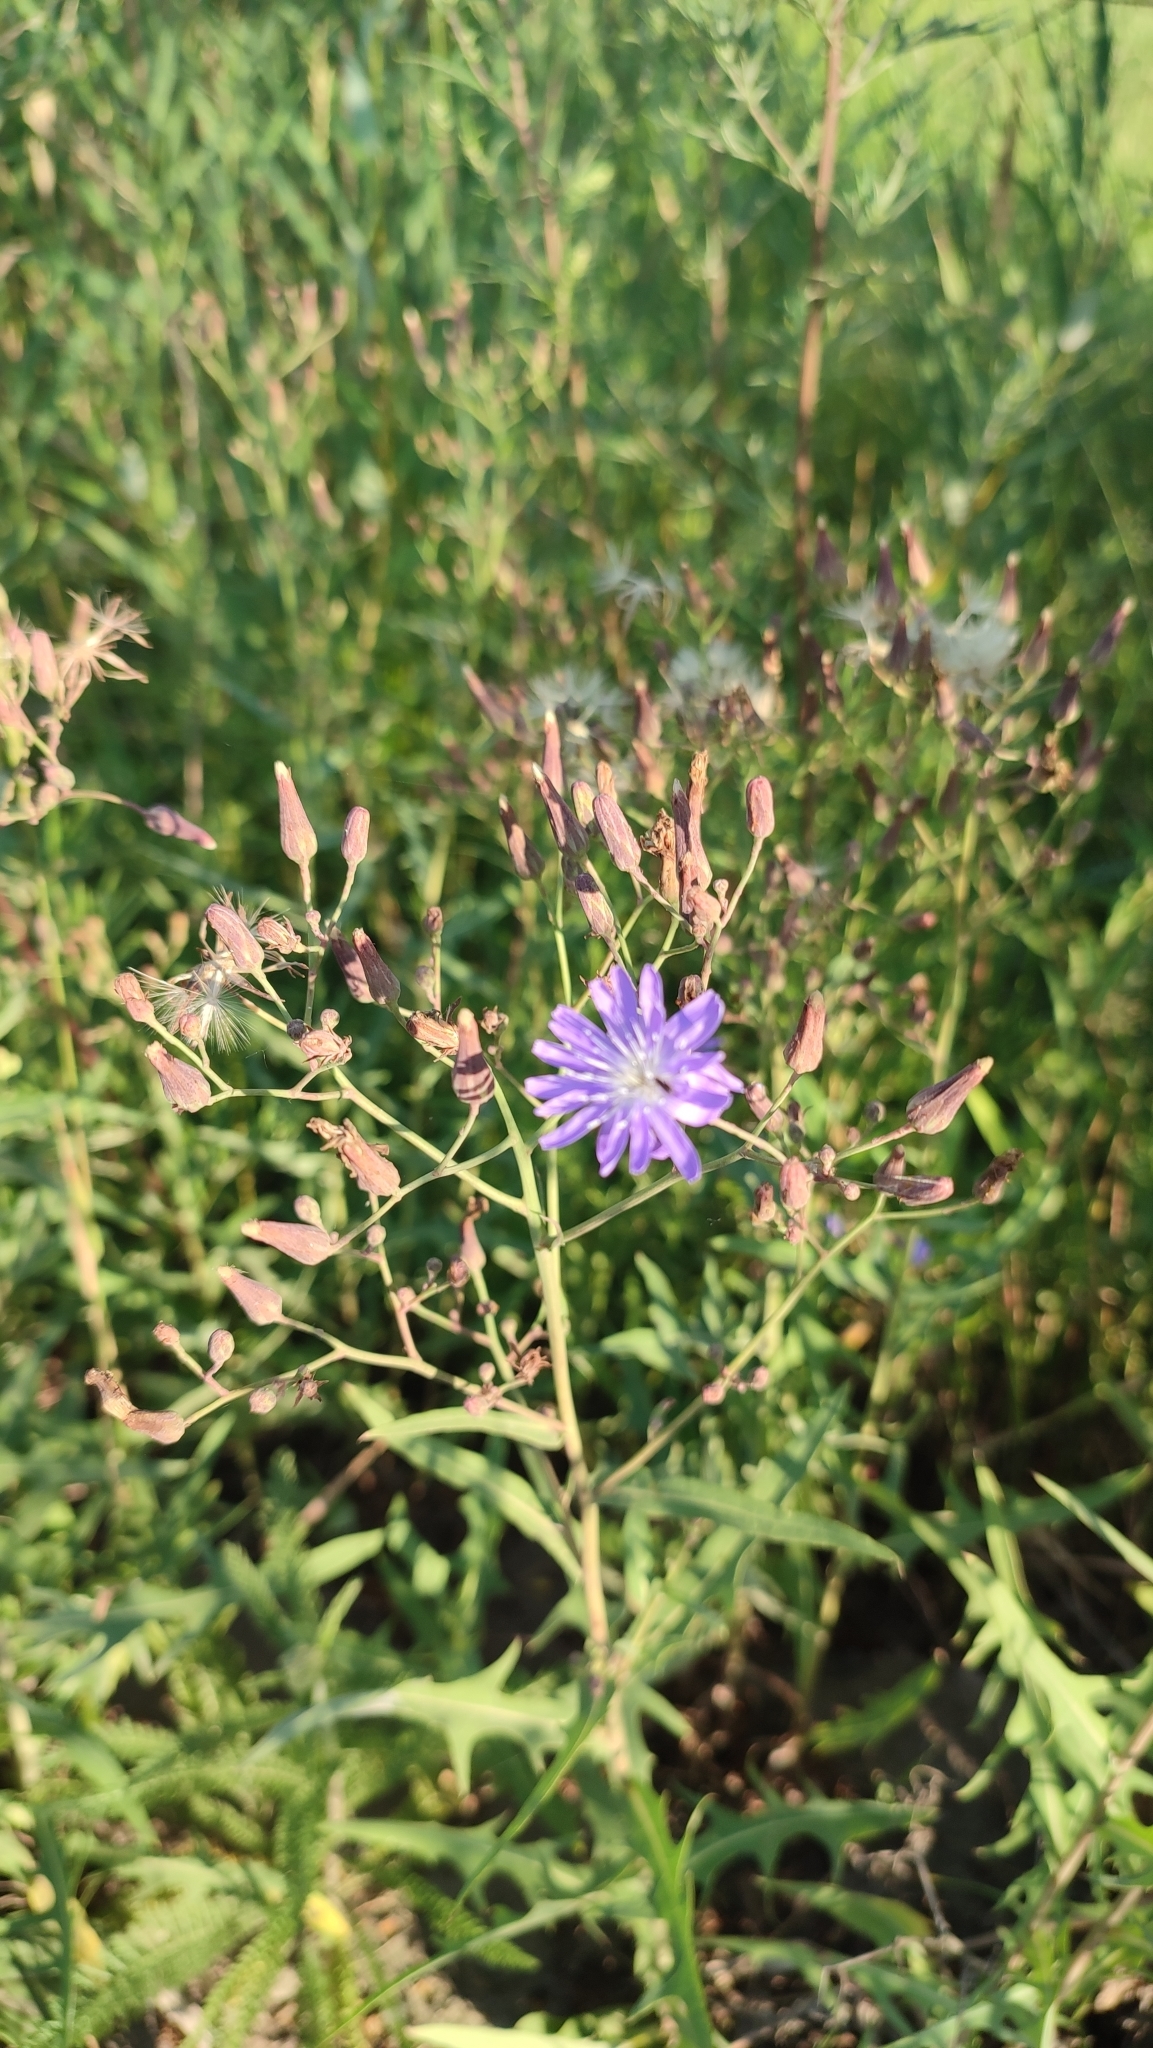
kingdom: Plantae
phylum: Tracheophyta
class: Magnoliopsida
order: Asterales
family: Asteraceae
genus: Lactuca
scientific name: Lactuca tatarica
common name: Blue lettuce
